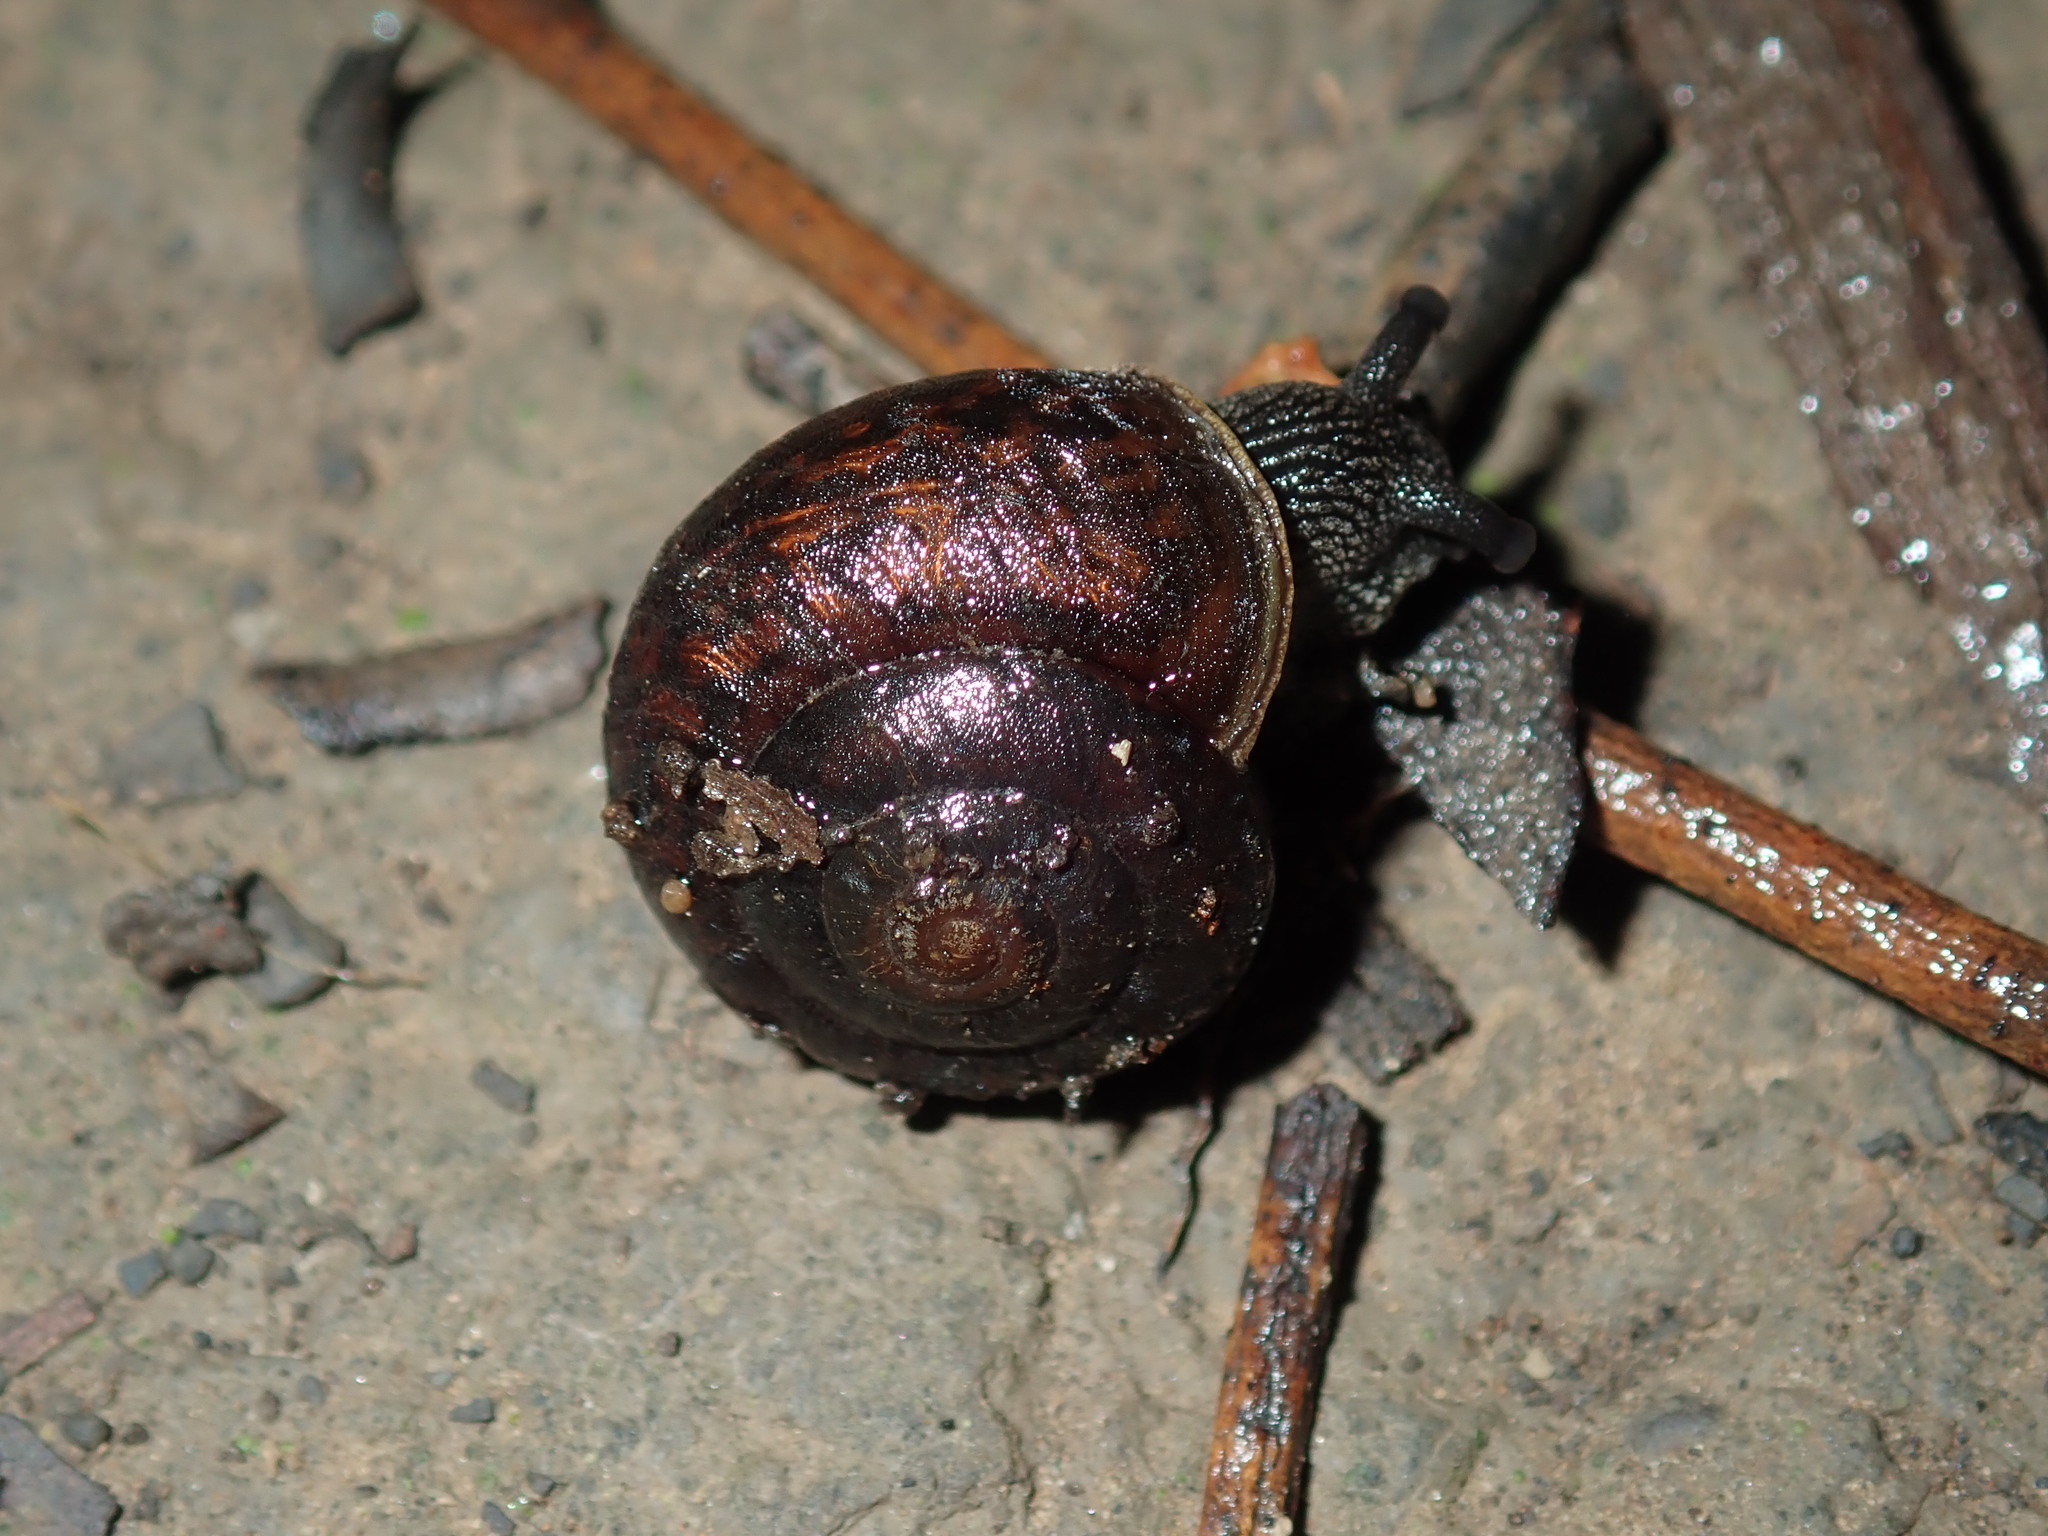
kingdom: Animalia
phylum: Mollusca
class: Gastropoda
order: Stylommatophora
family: Camaenidae
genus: Sauroconcha
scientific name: Sauroconcha sheai
